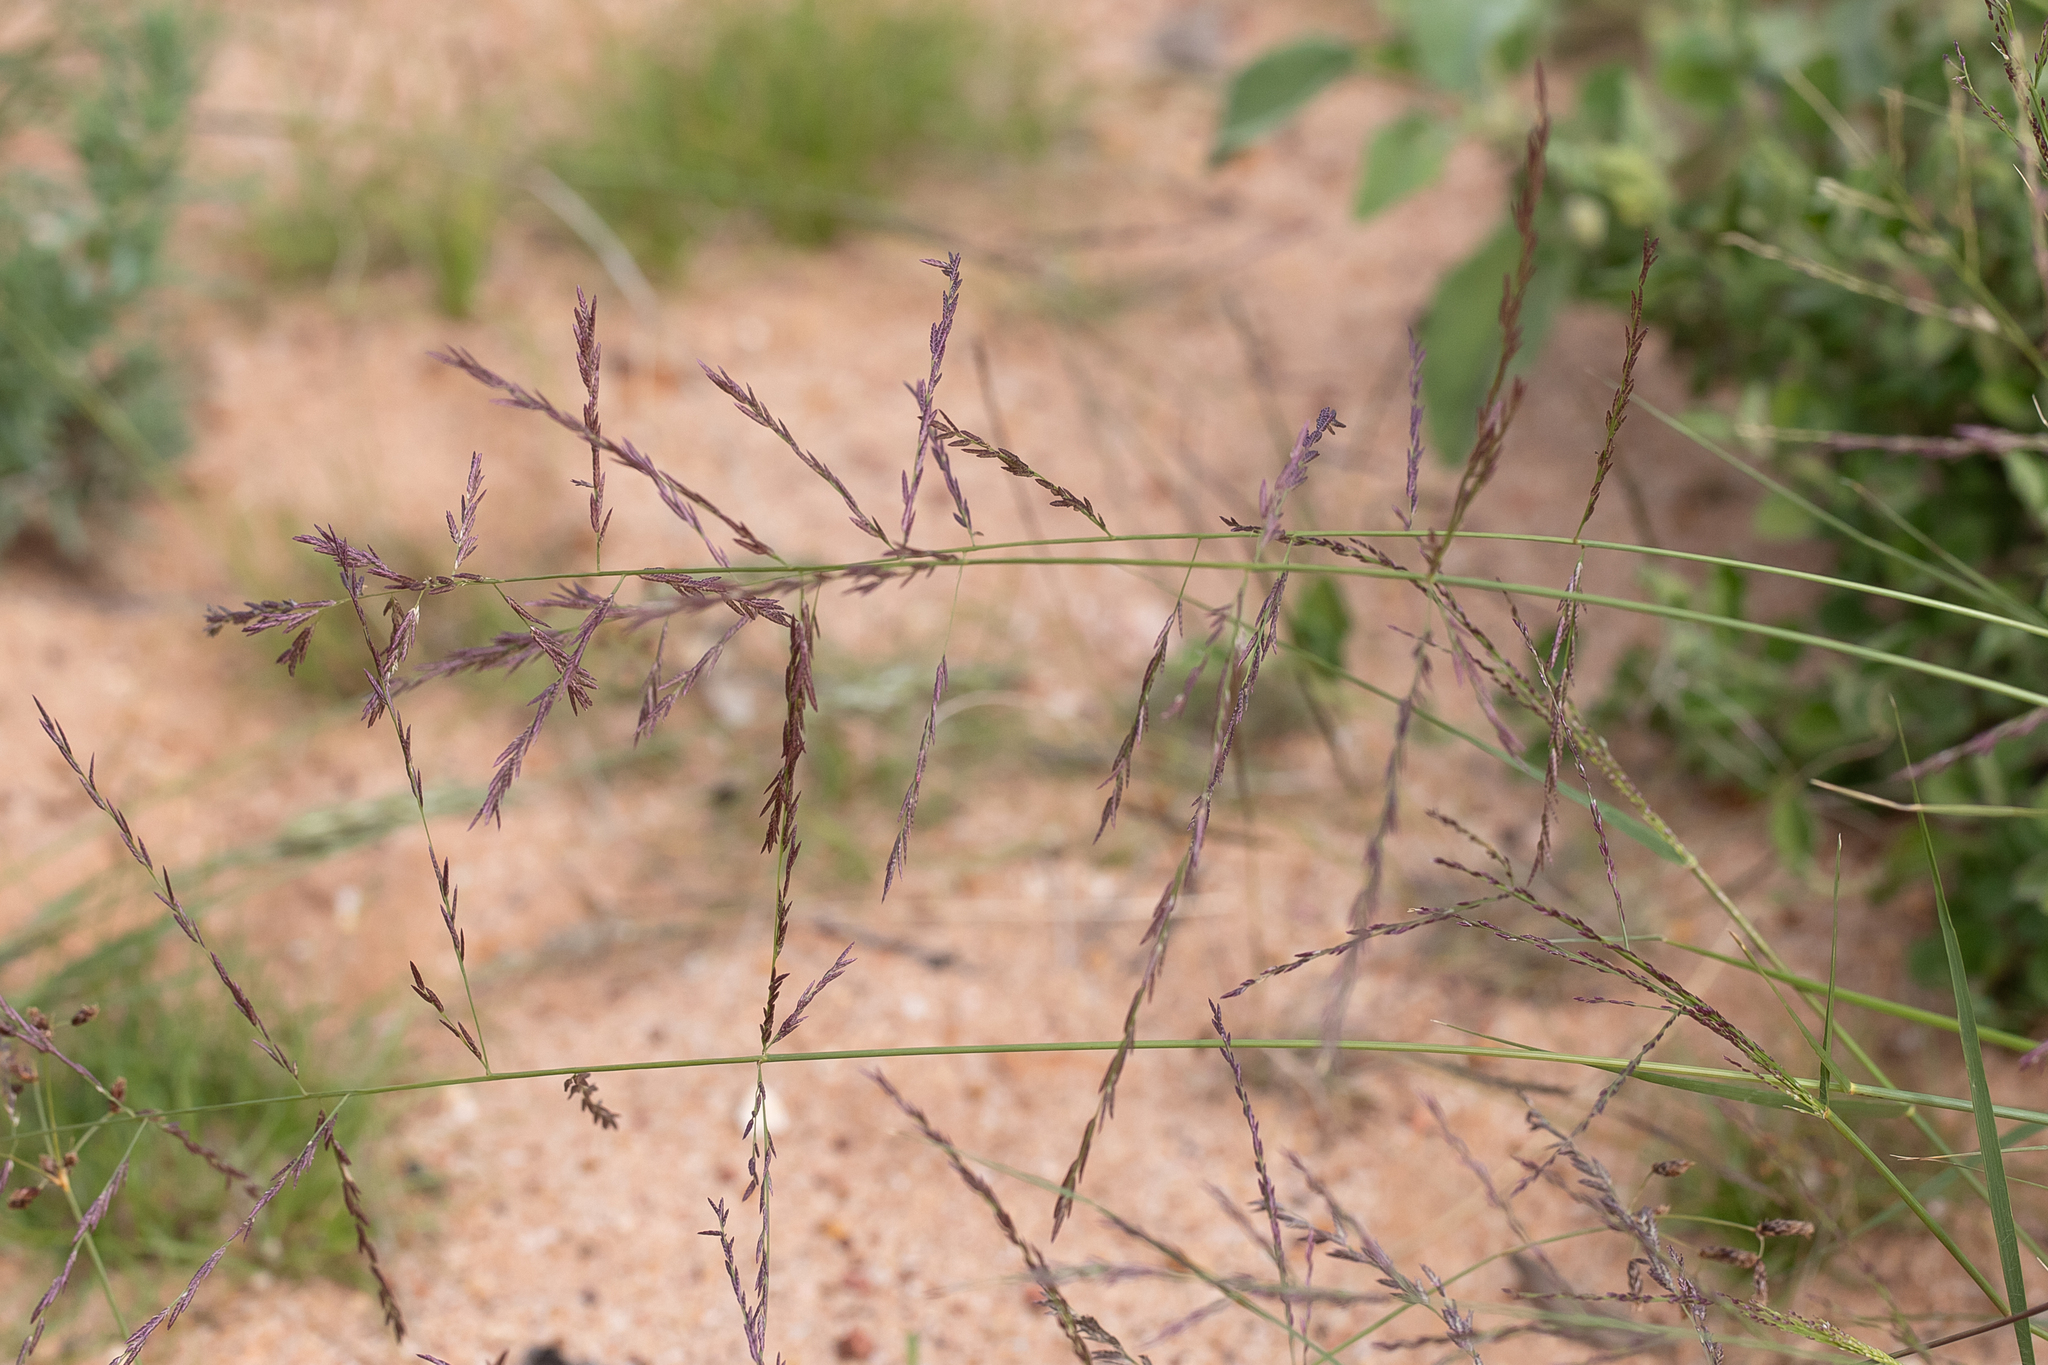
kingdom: Plantae
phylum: Tracheophyta
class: Liliopsida
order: Poales
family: Poaceae
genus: Eragrostis
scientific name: Eragrostis microcarpa
